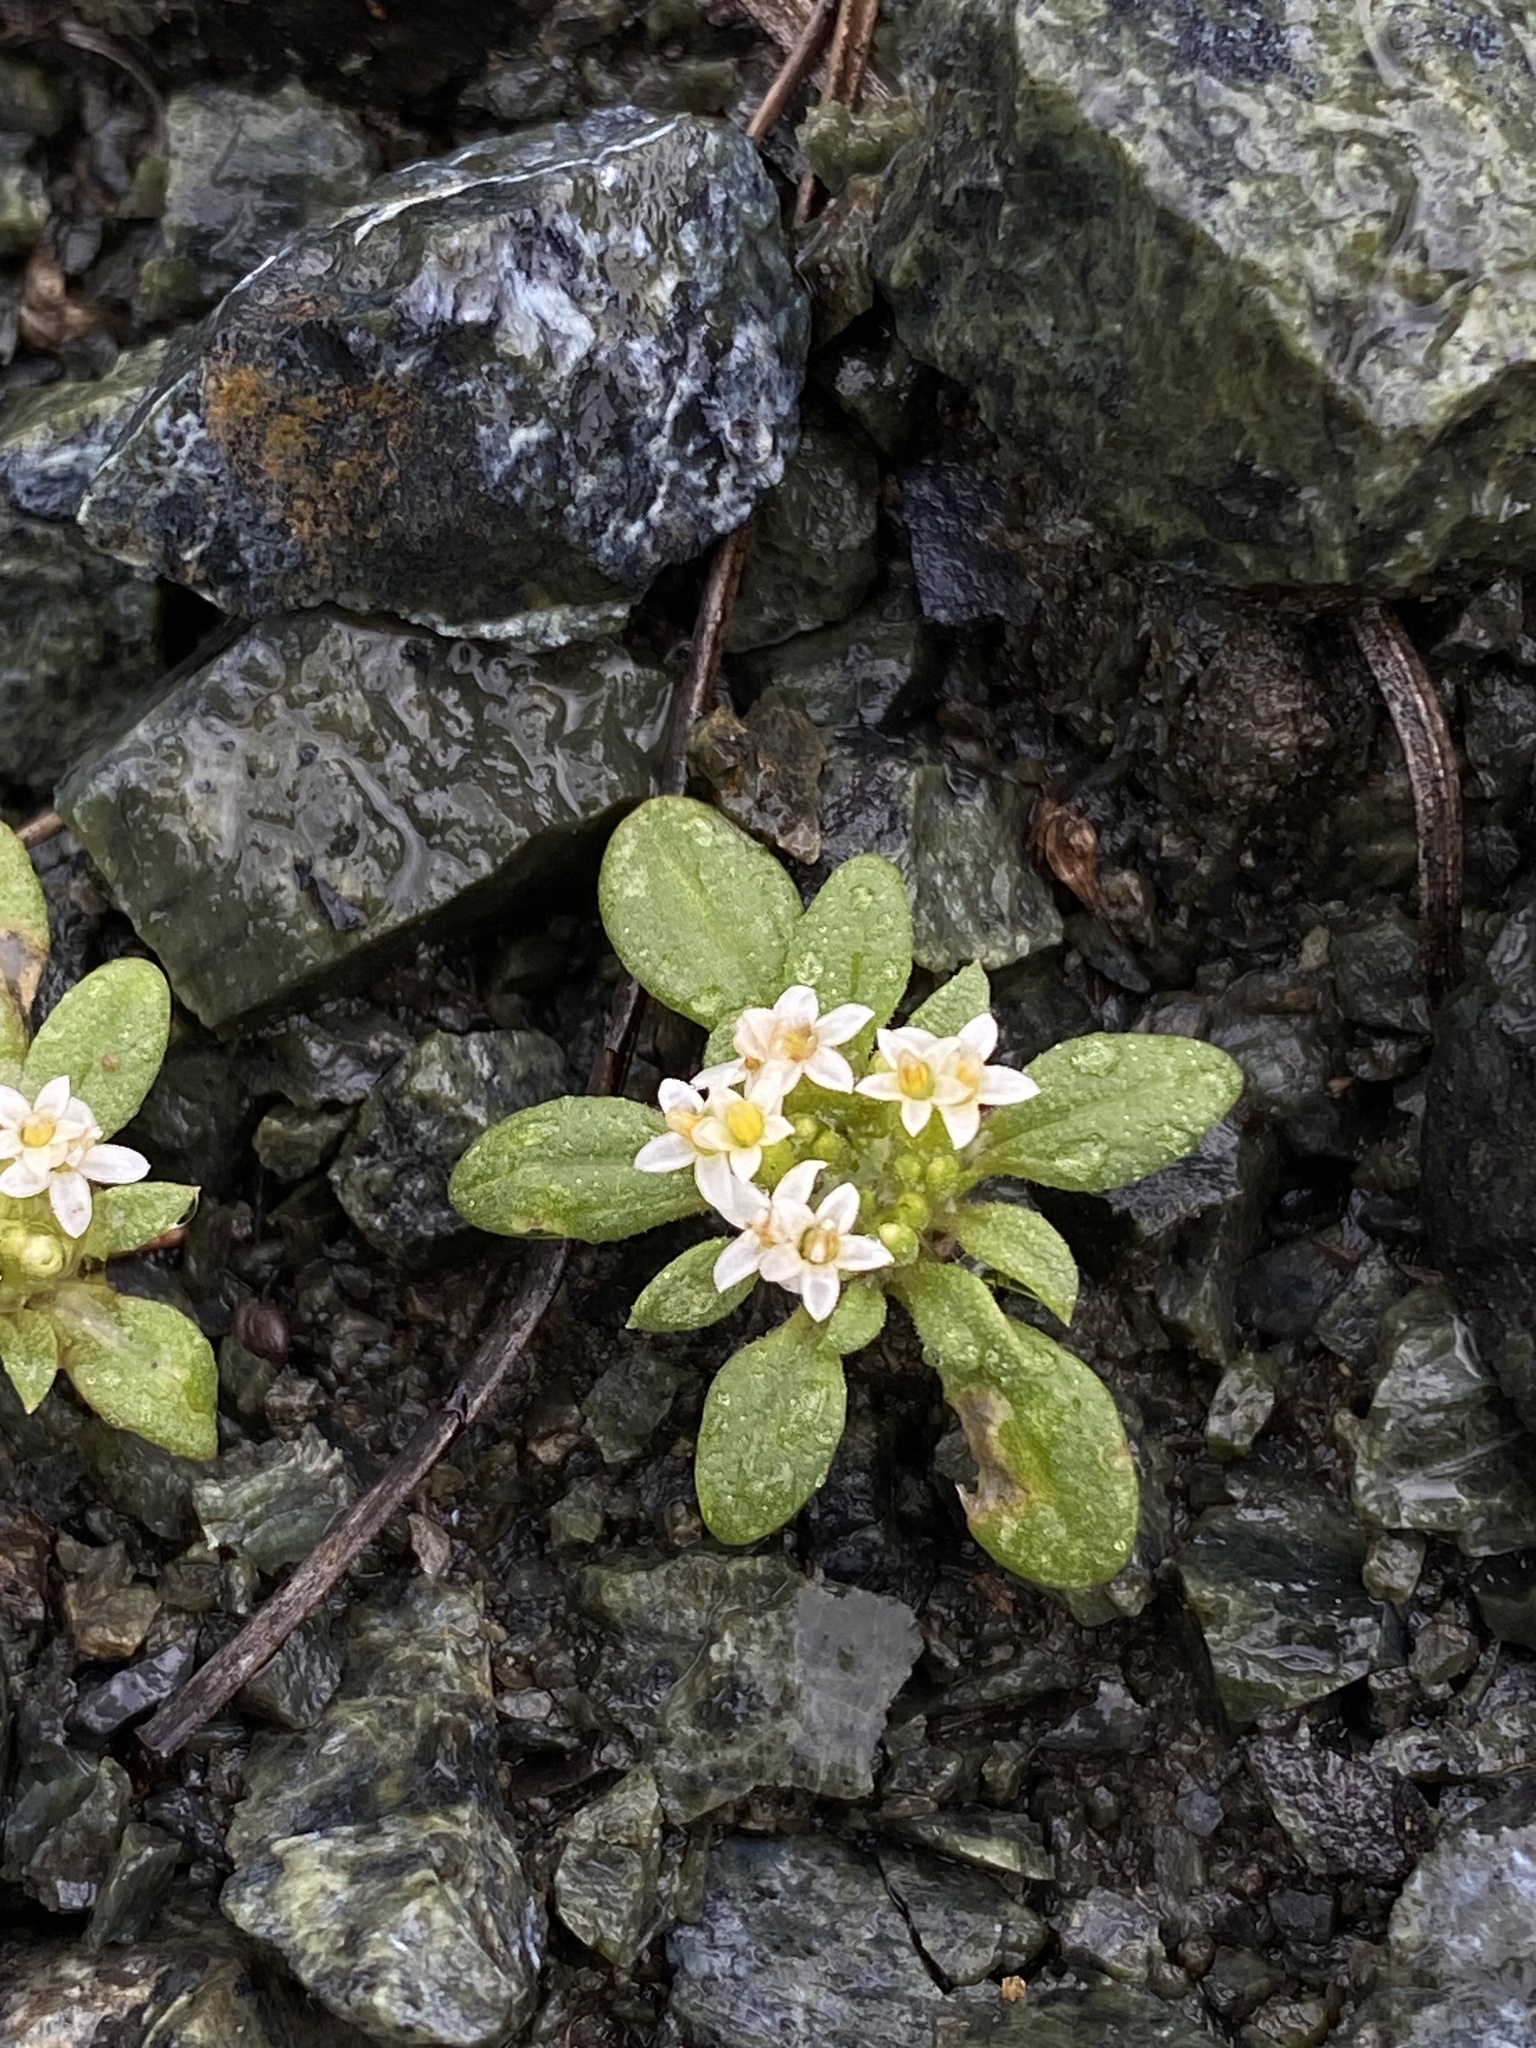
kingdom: Plantae
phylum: Tracheophyta
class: Magnoliopsida
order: Asterales
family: Asteraceae
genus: Dimeresia
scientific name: Dimeresia howellii
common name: Doublet
